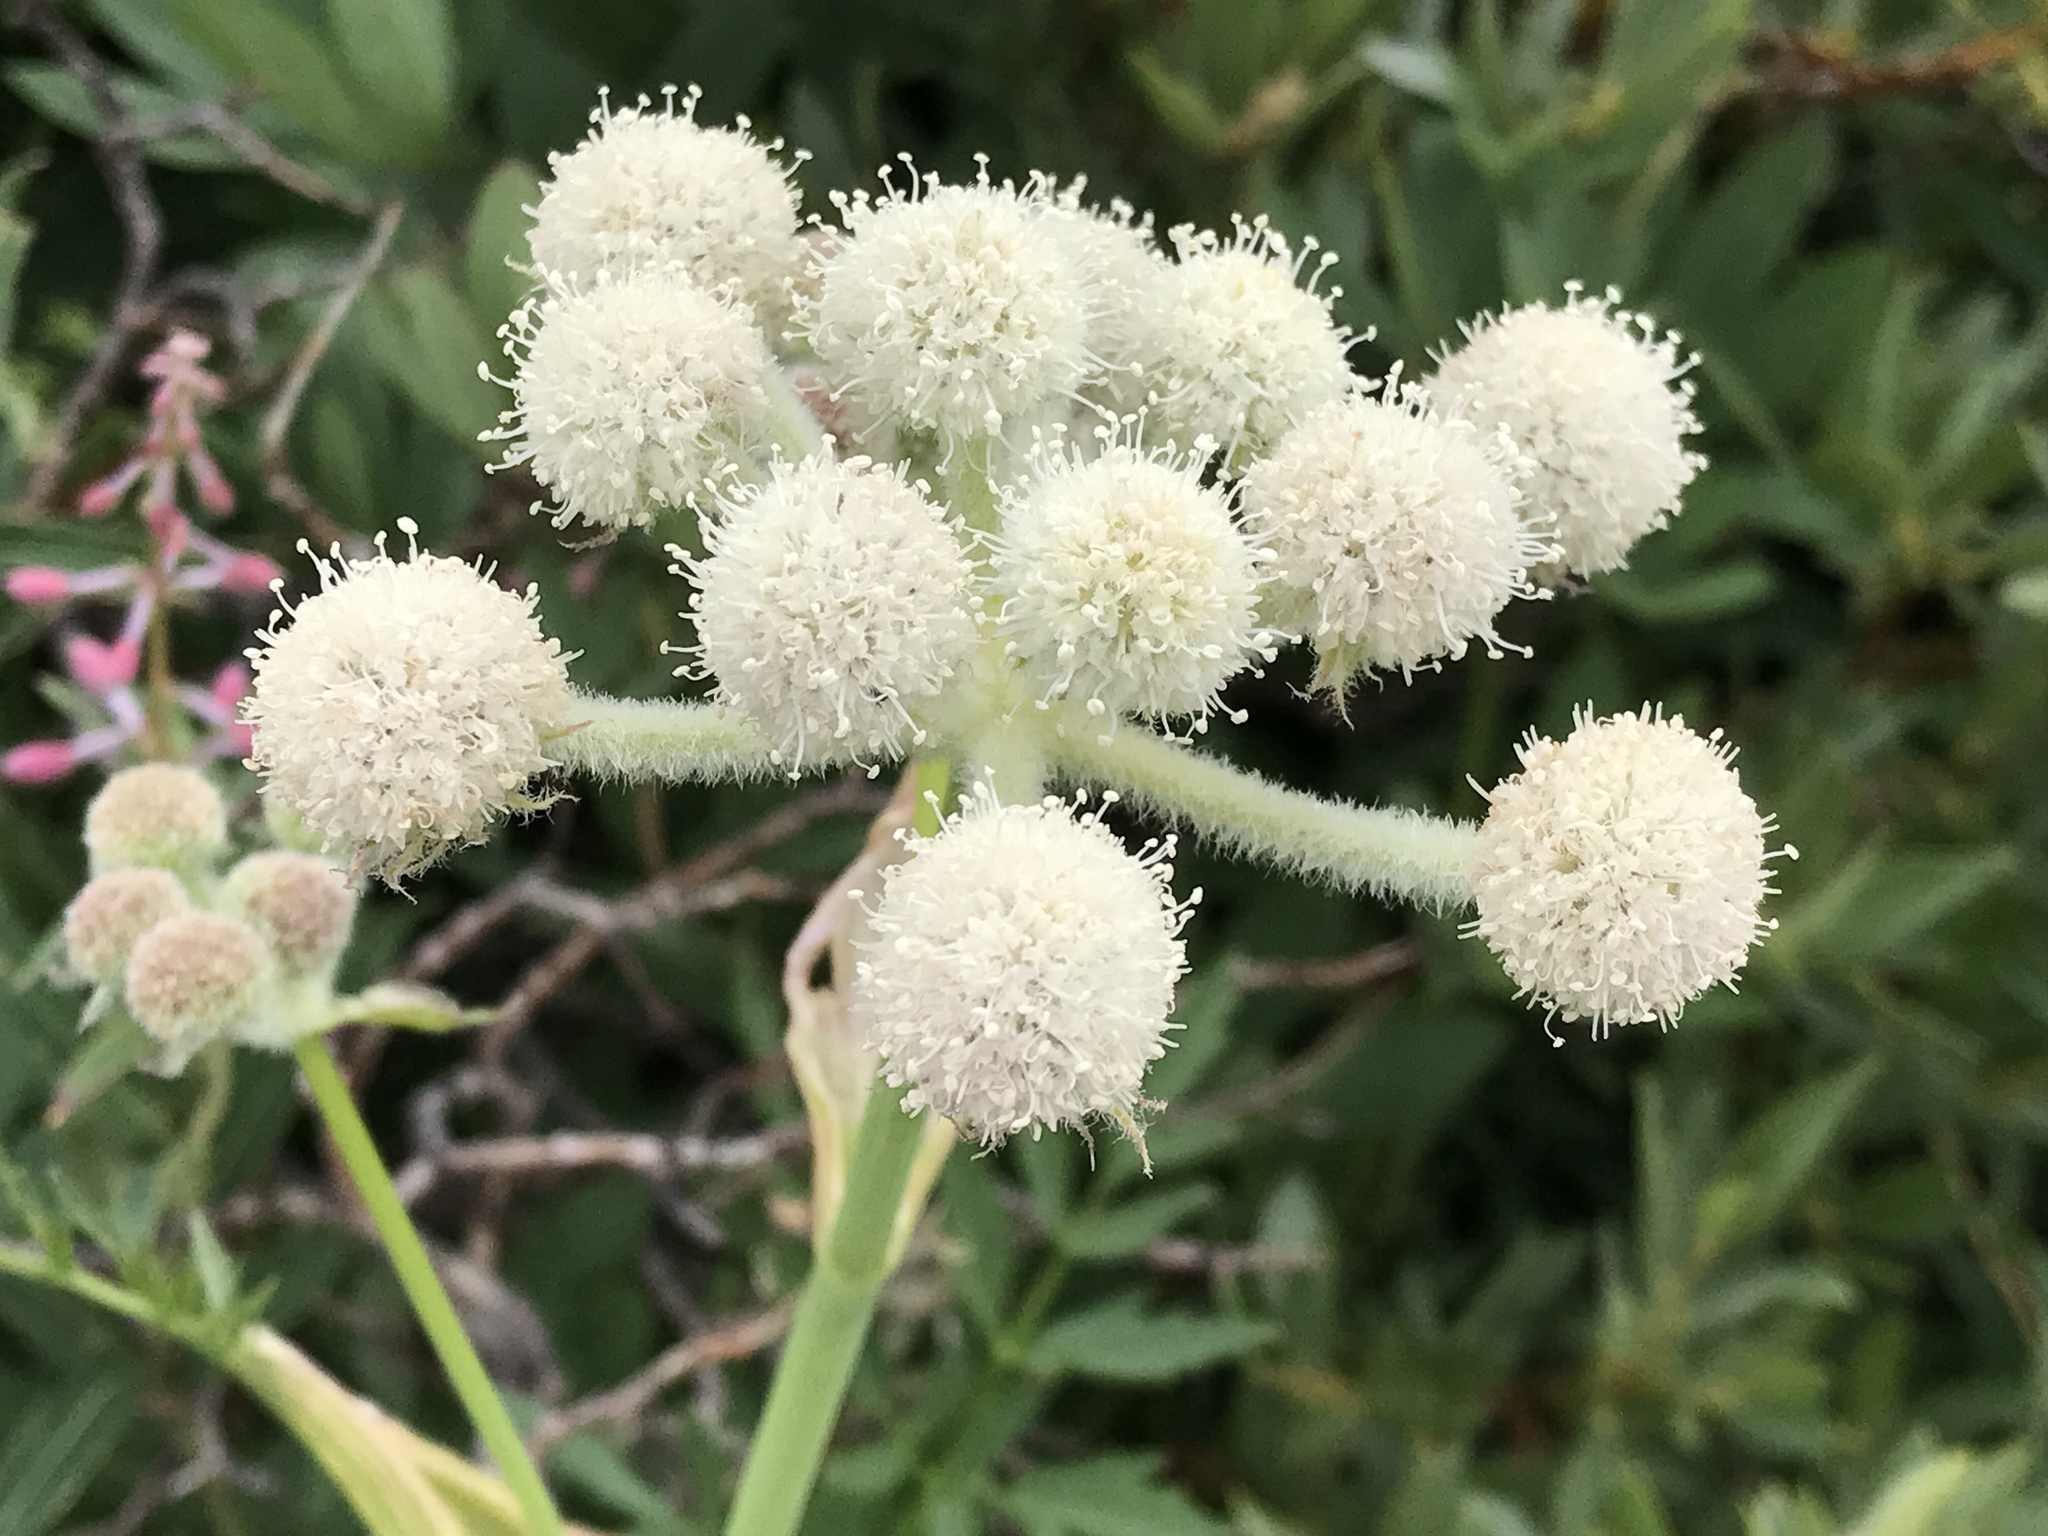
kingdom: Plantae
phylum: Tracheophyta
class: Magnoliopsida
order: Apiales
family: Apiaceae
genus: Angelica
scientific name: Angelica capitellata
